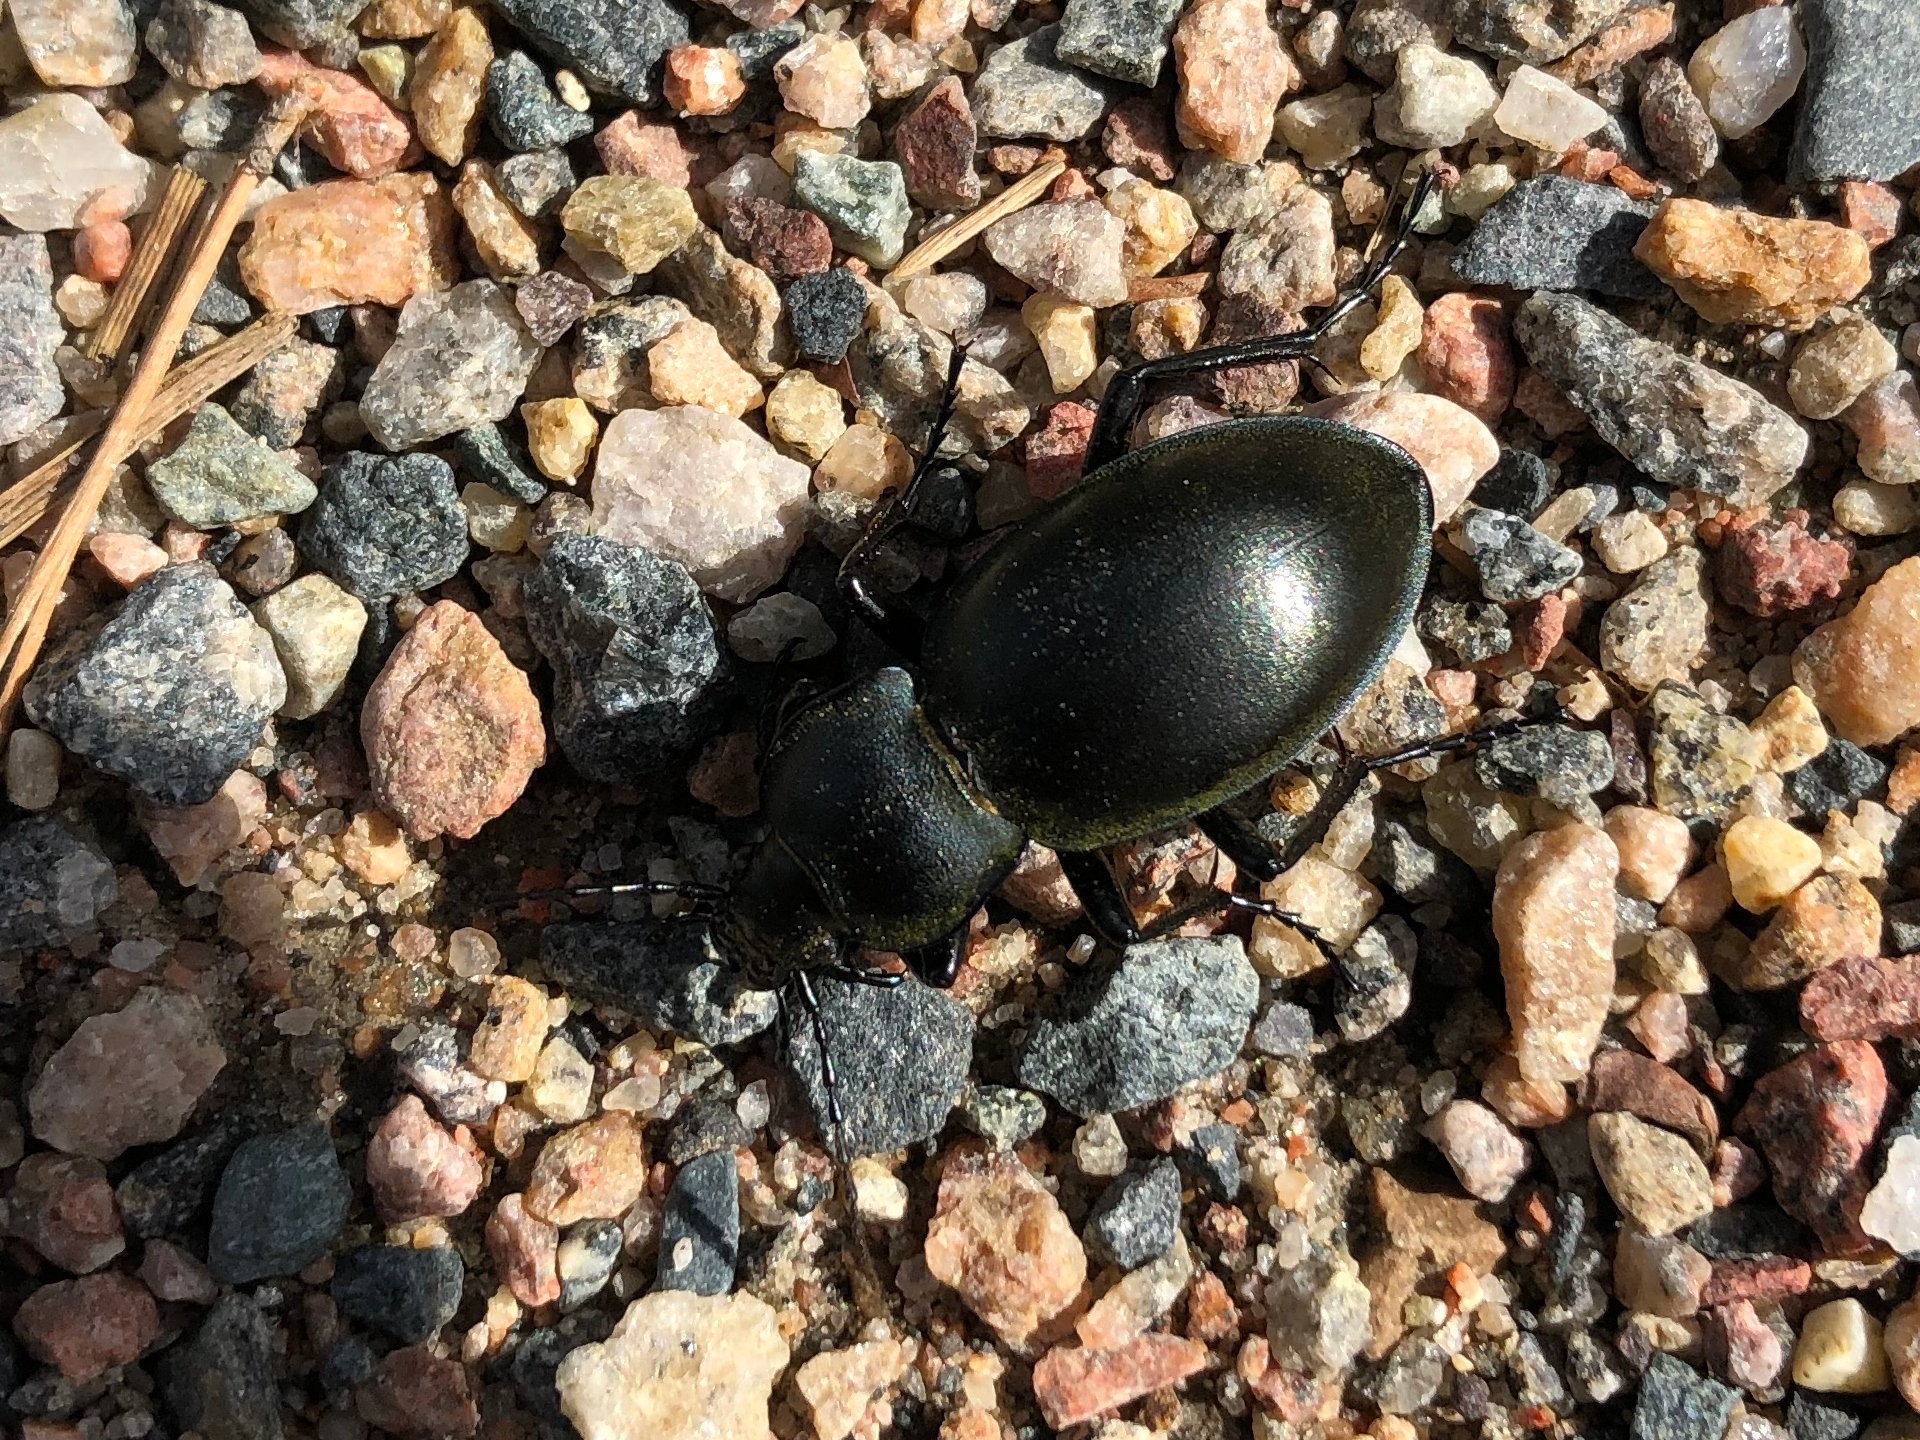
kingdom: Animalia
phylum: Arthropoda
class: Insecta
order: Coleoptera
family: Carabidae
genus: Carabus
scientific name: Carabus glabratus
